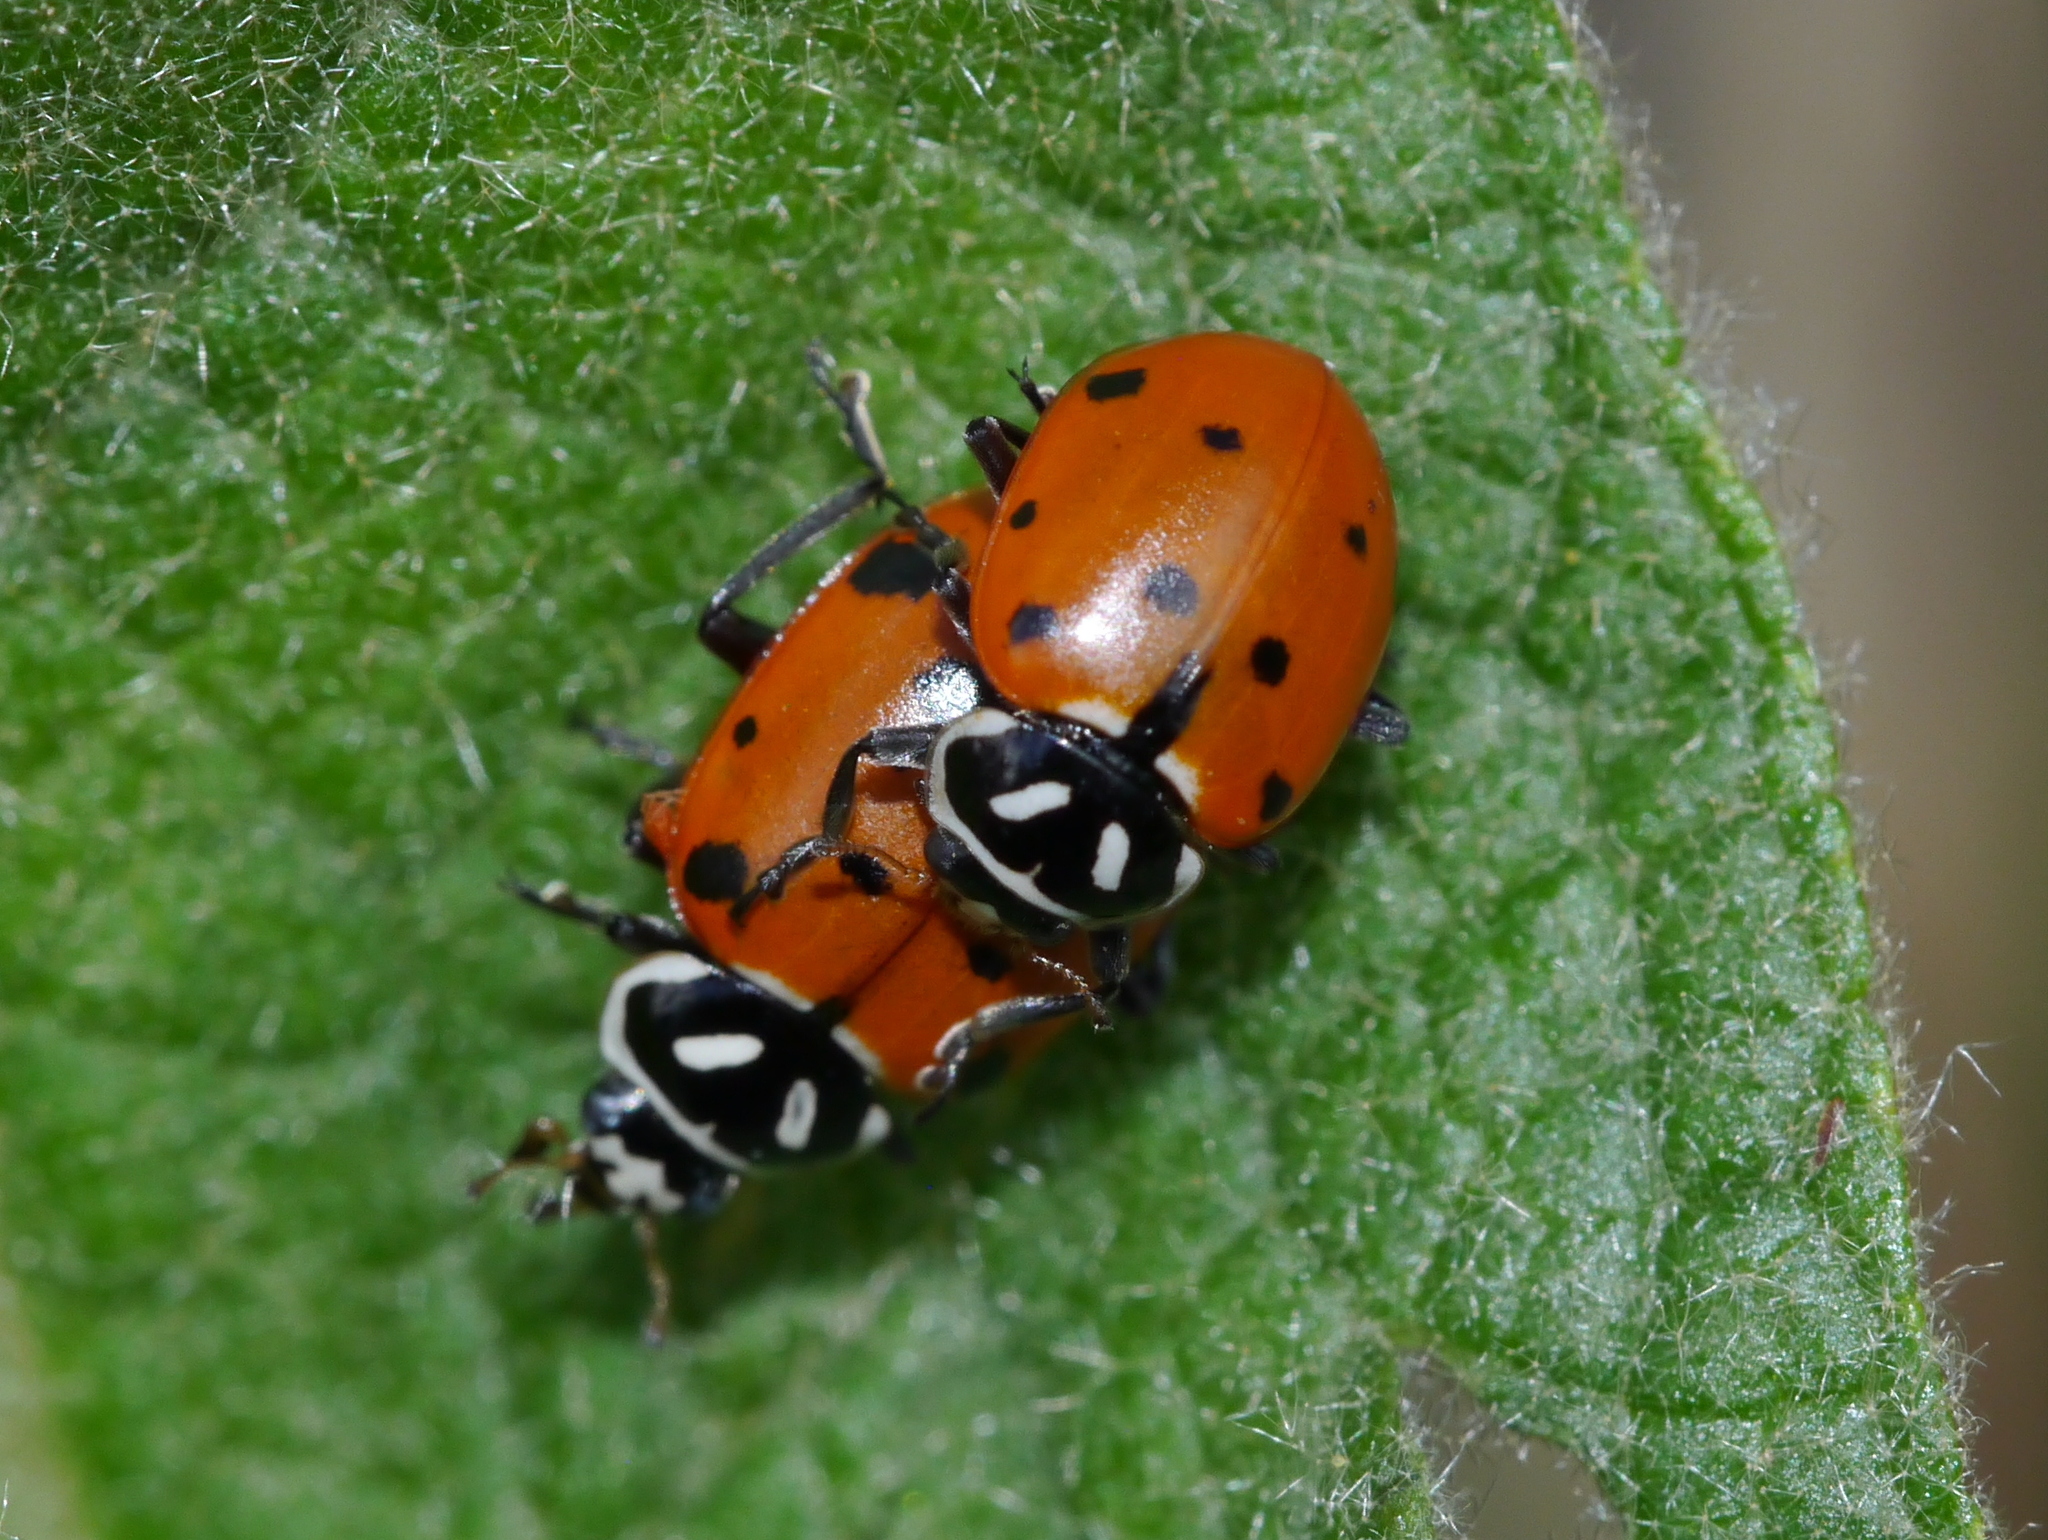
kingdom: Animalia
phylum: Arthropoda
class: Insecta
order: Coleoptera
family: Coccinellidae
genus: Hippodamia
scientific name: Hippodamia convergens
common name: Convergent lady beetle
